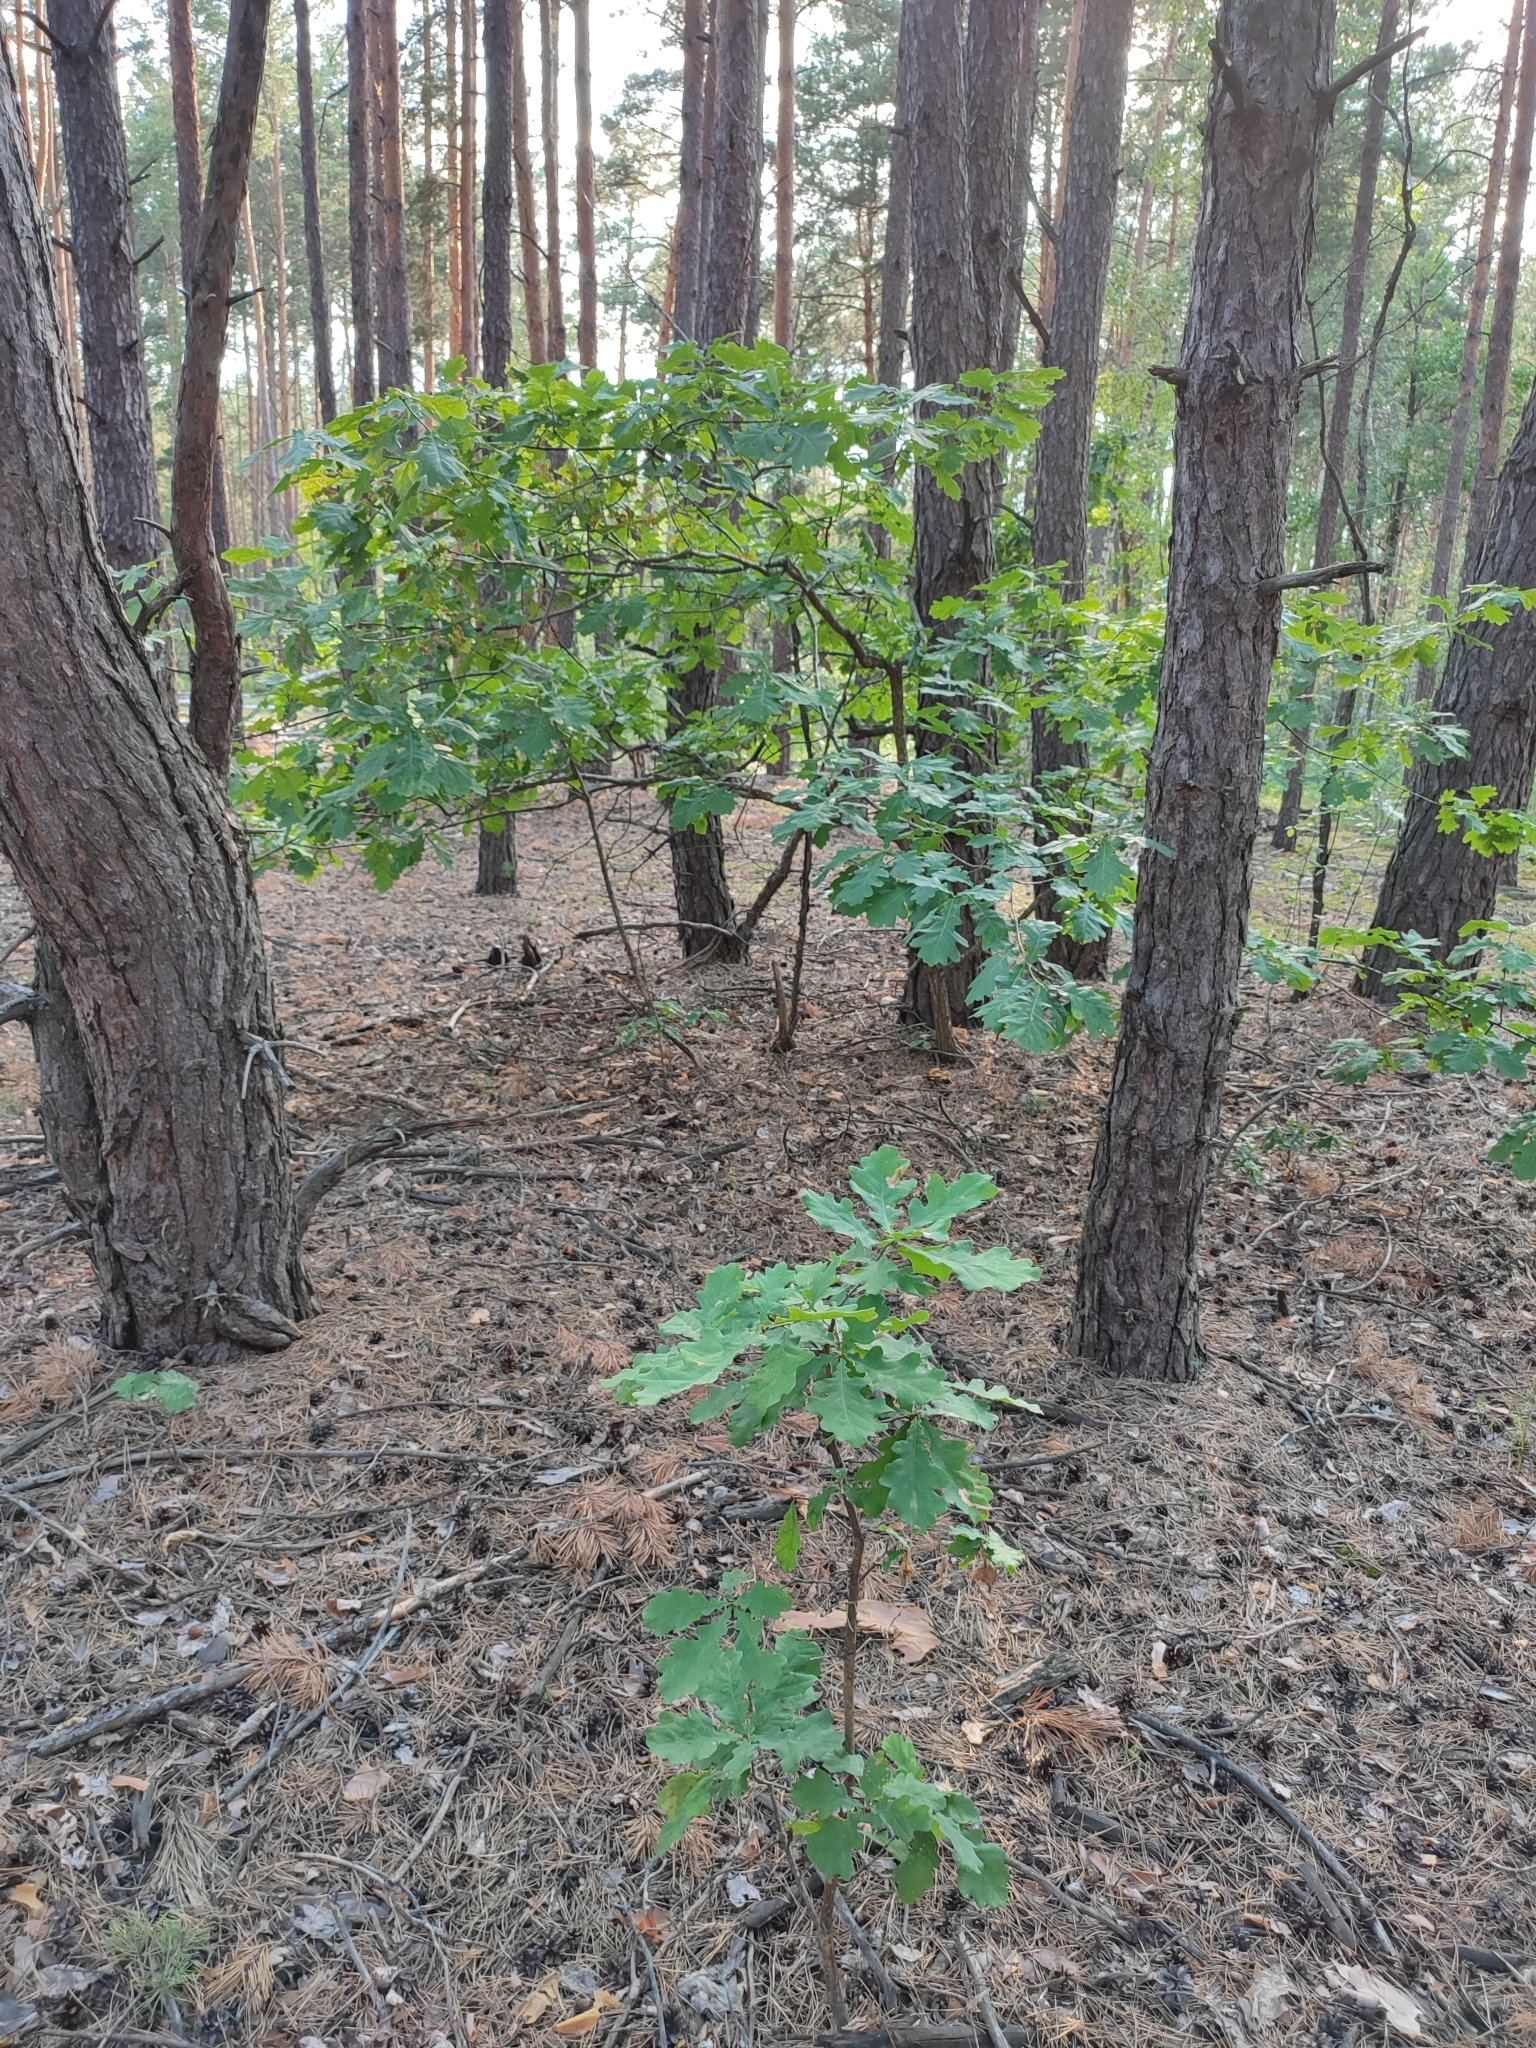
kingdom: Plantae
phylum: Tracheophyta
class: Magnoliopsida
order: Fagales
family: Fagaceae
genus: Quercus
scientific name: Quercus robur
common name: Pedunculate oak
